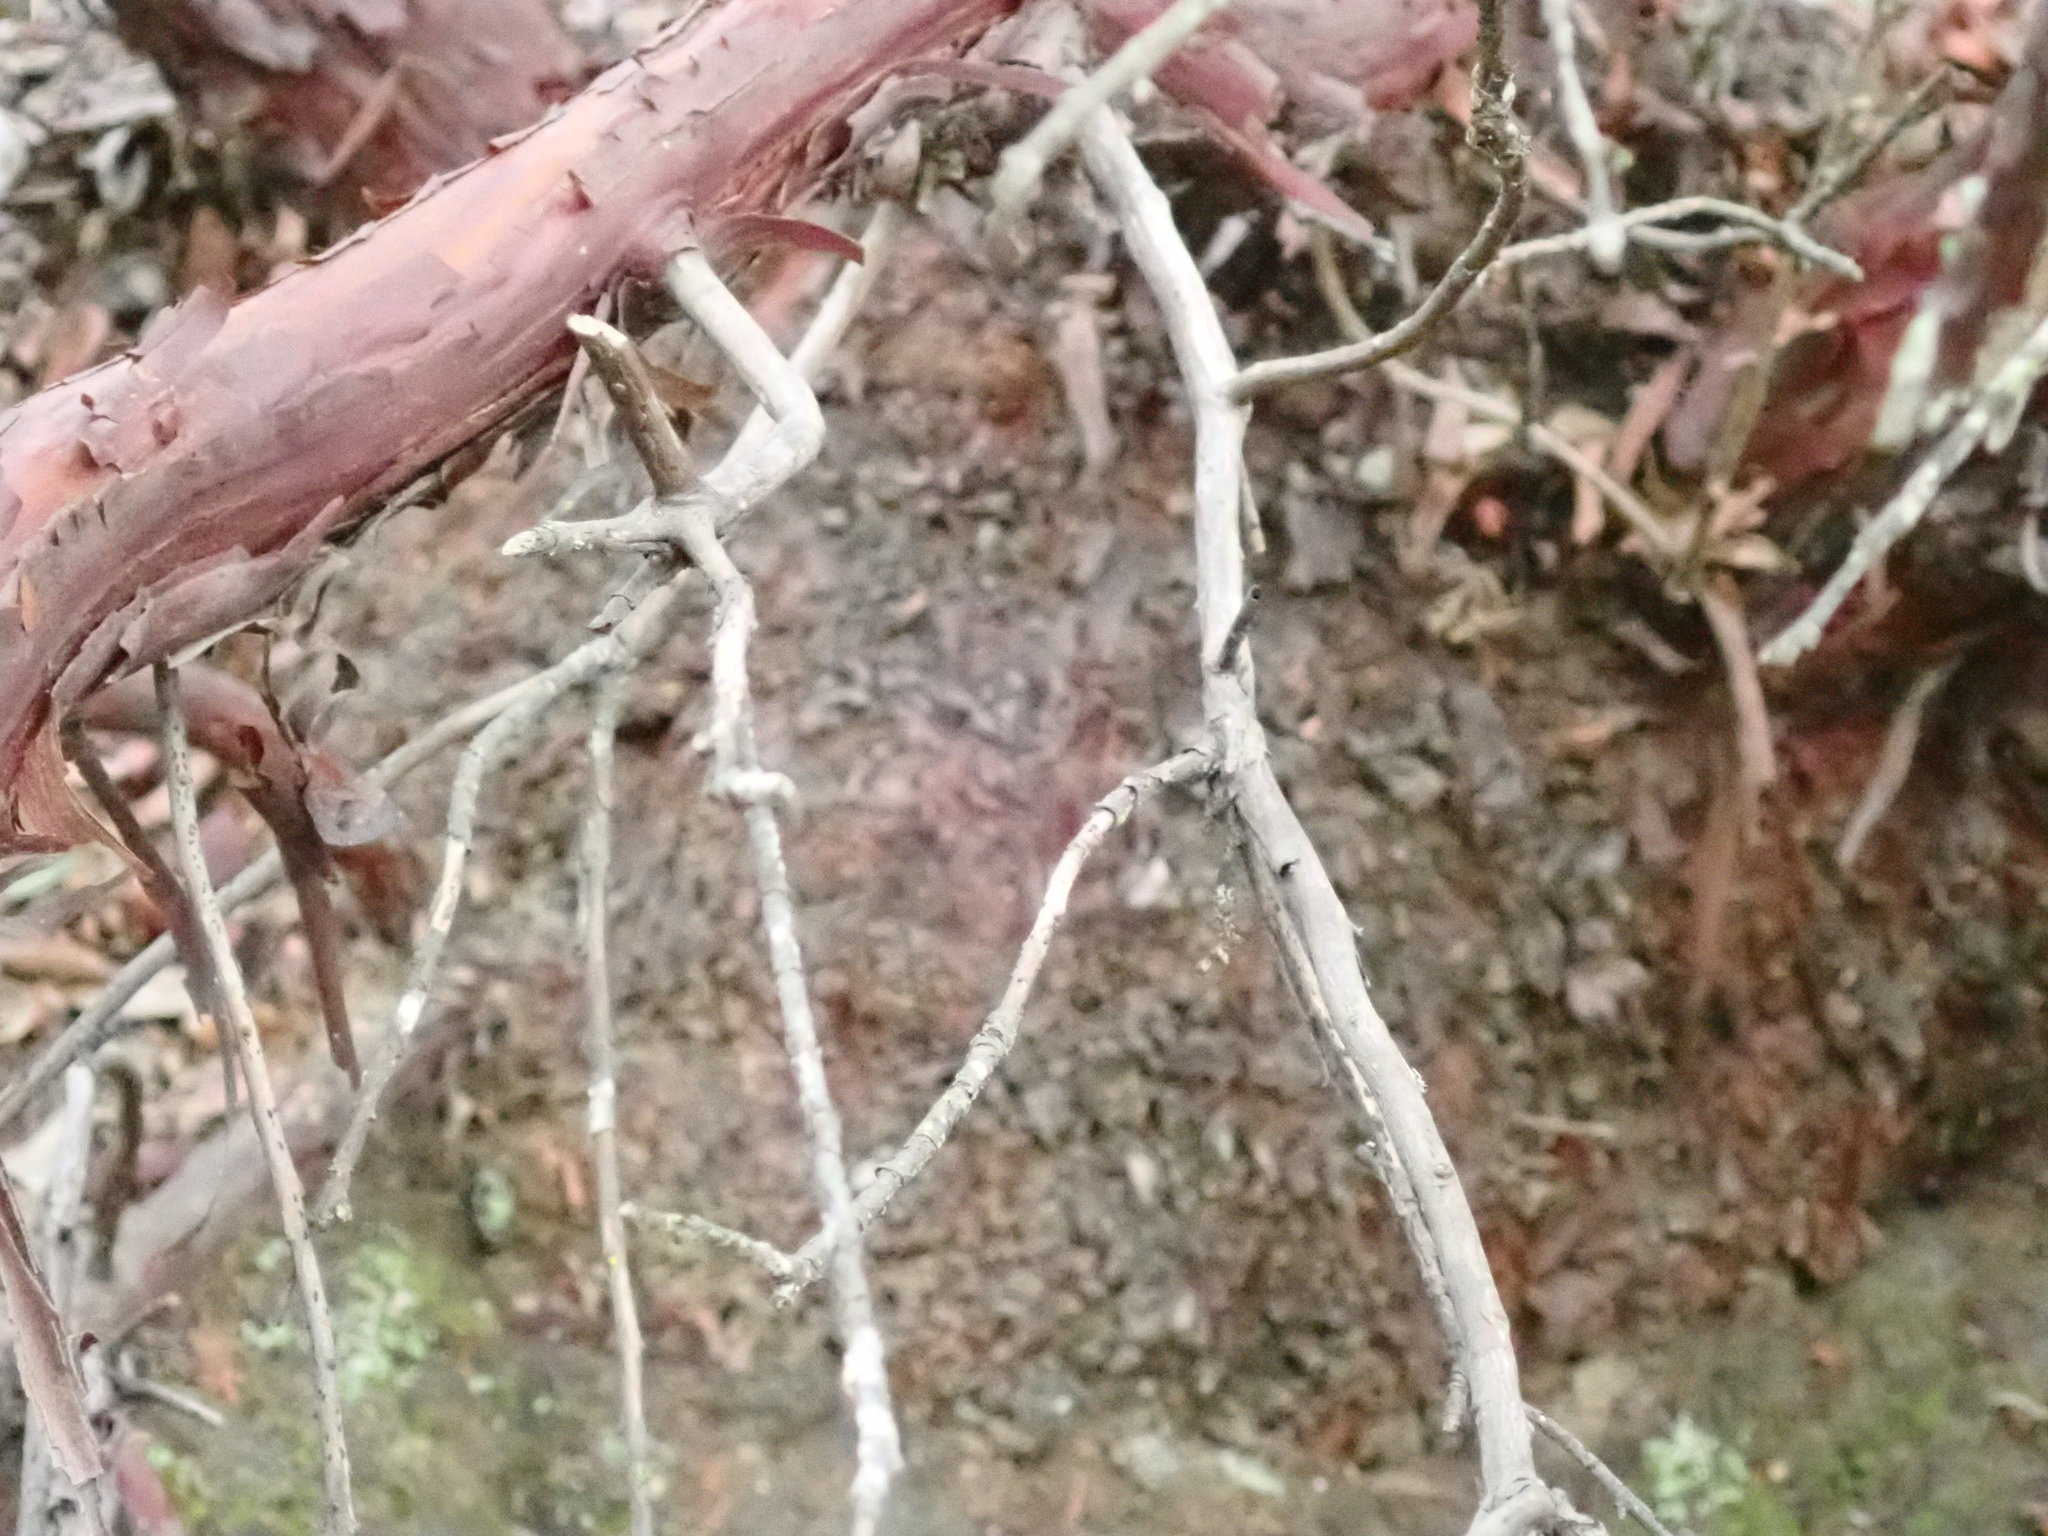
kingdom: Plantae
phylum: Tracheophyta
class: Magnoliopsida
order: Ericales
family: Ericaceae
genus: Arctostaphylos
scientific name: Arctostaphylos tomentosa
